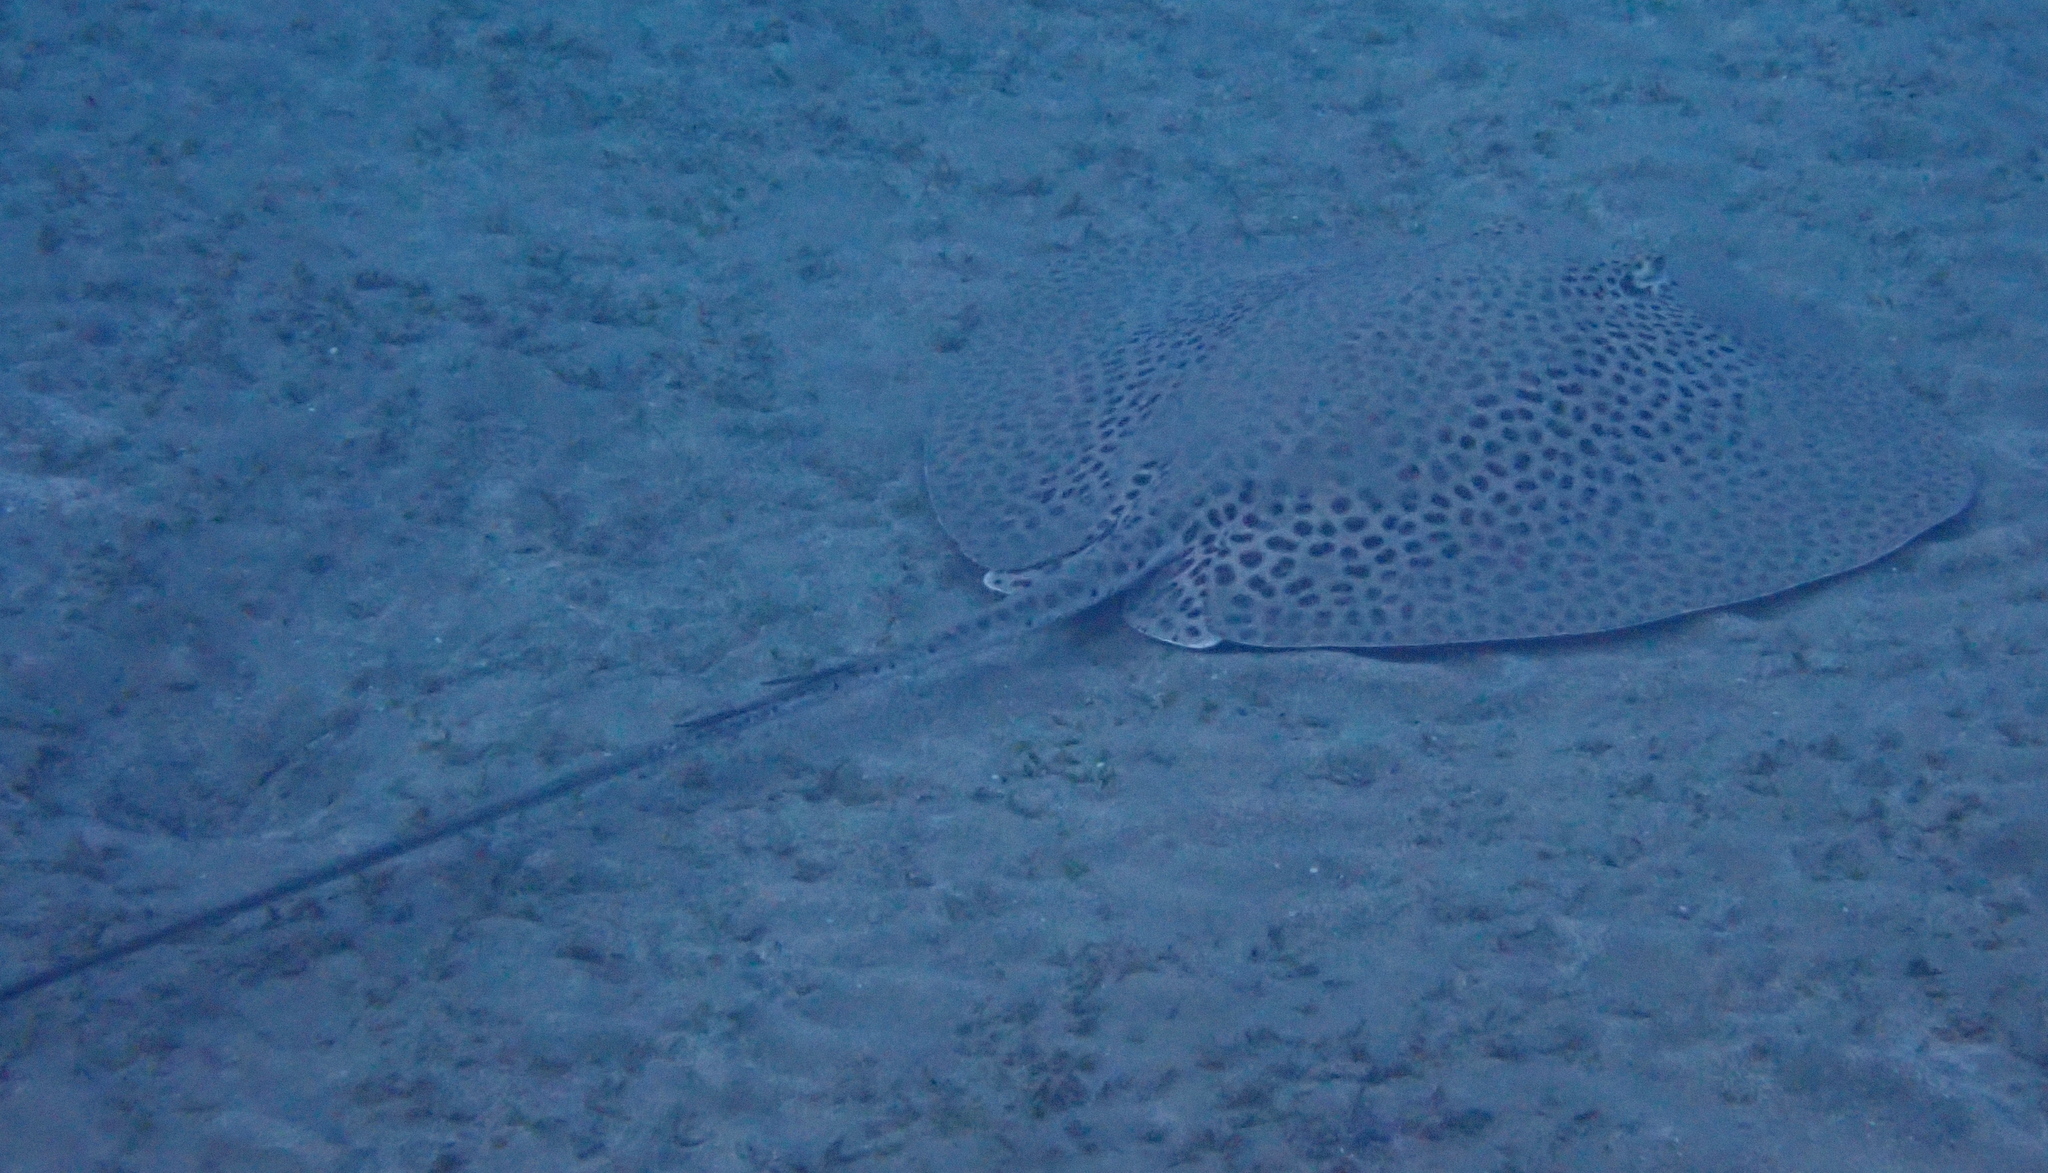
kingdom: Animalia
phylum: Chordata
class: Elasmobranchii
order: Myliobatiformes
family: Dasyatidae
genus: Himantura
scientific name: Himantura uarnak
